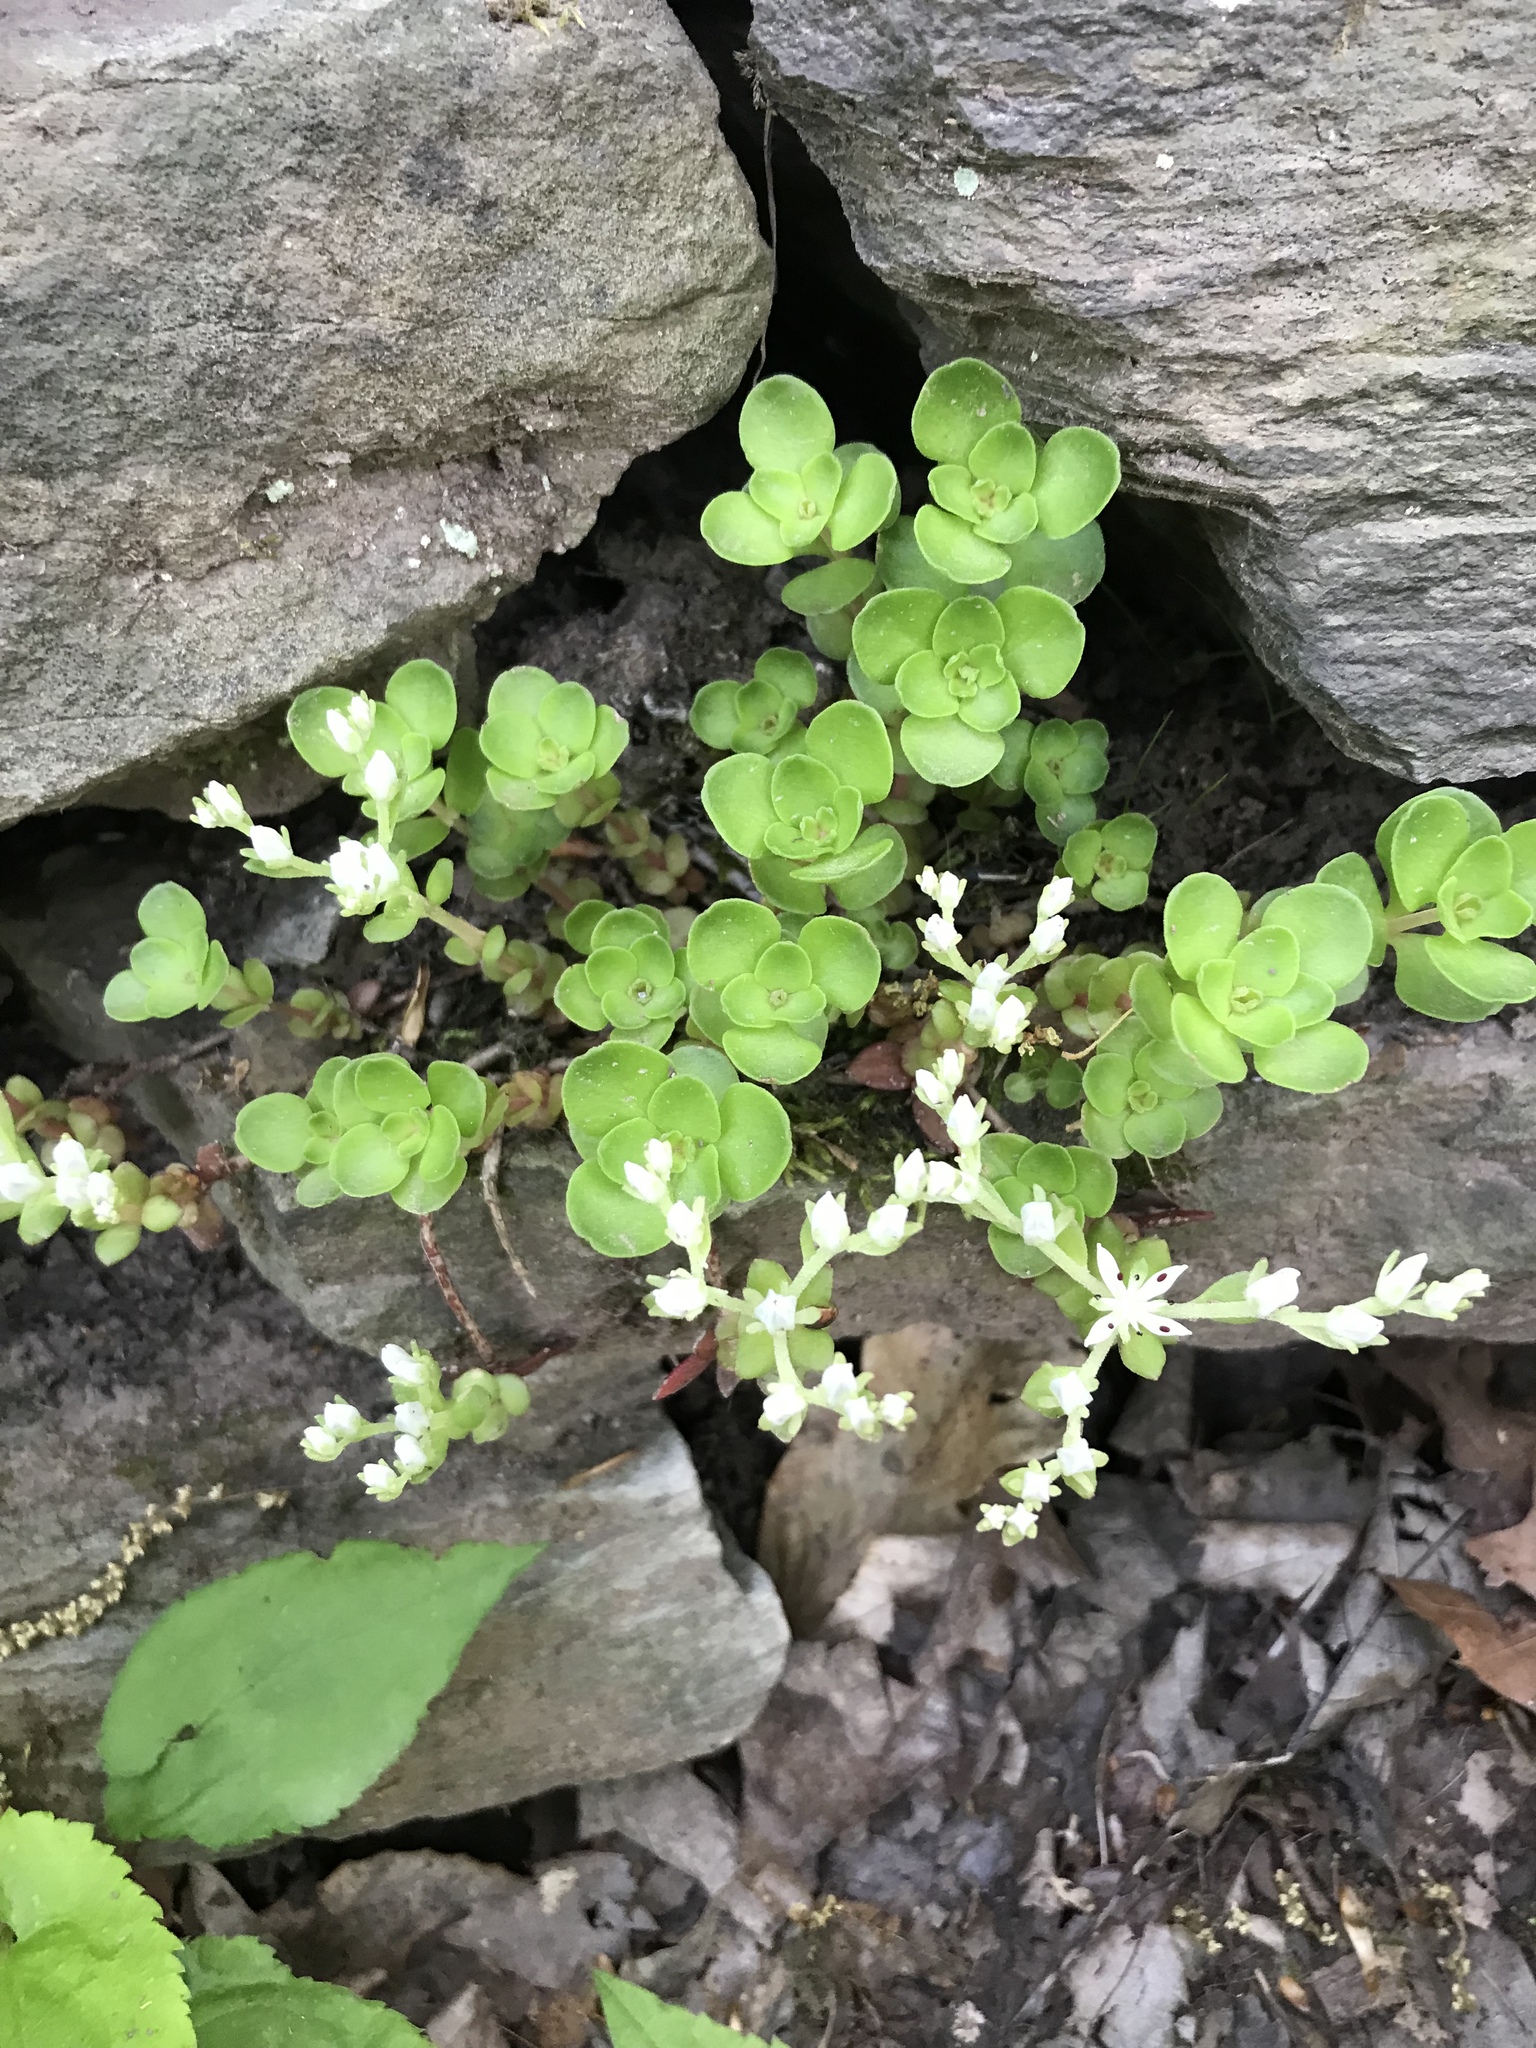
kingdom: Plantae
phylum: Tracheophyta
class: Magnoliopsida
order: Saxifragales
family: Crassulaceae
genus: Sedum
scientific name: Sedum ternatum
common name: Wild stonecrop
